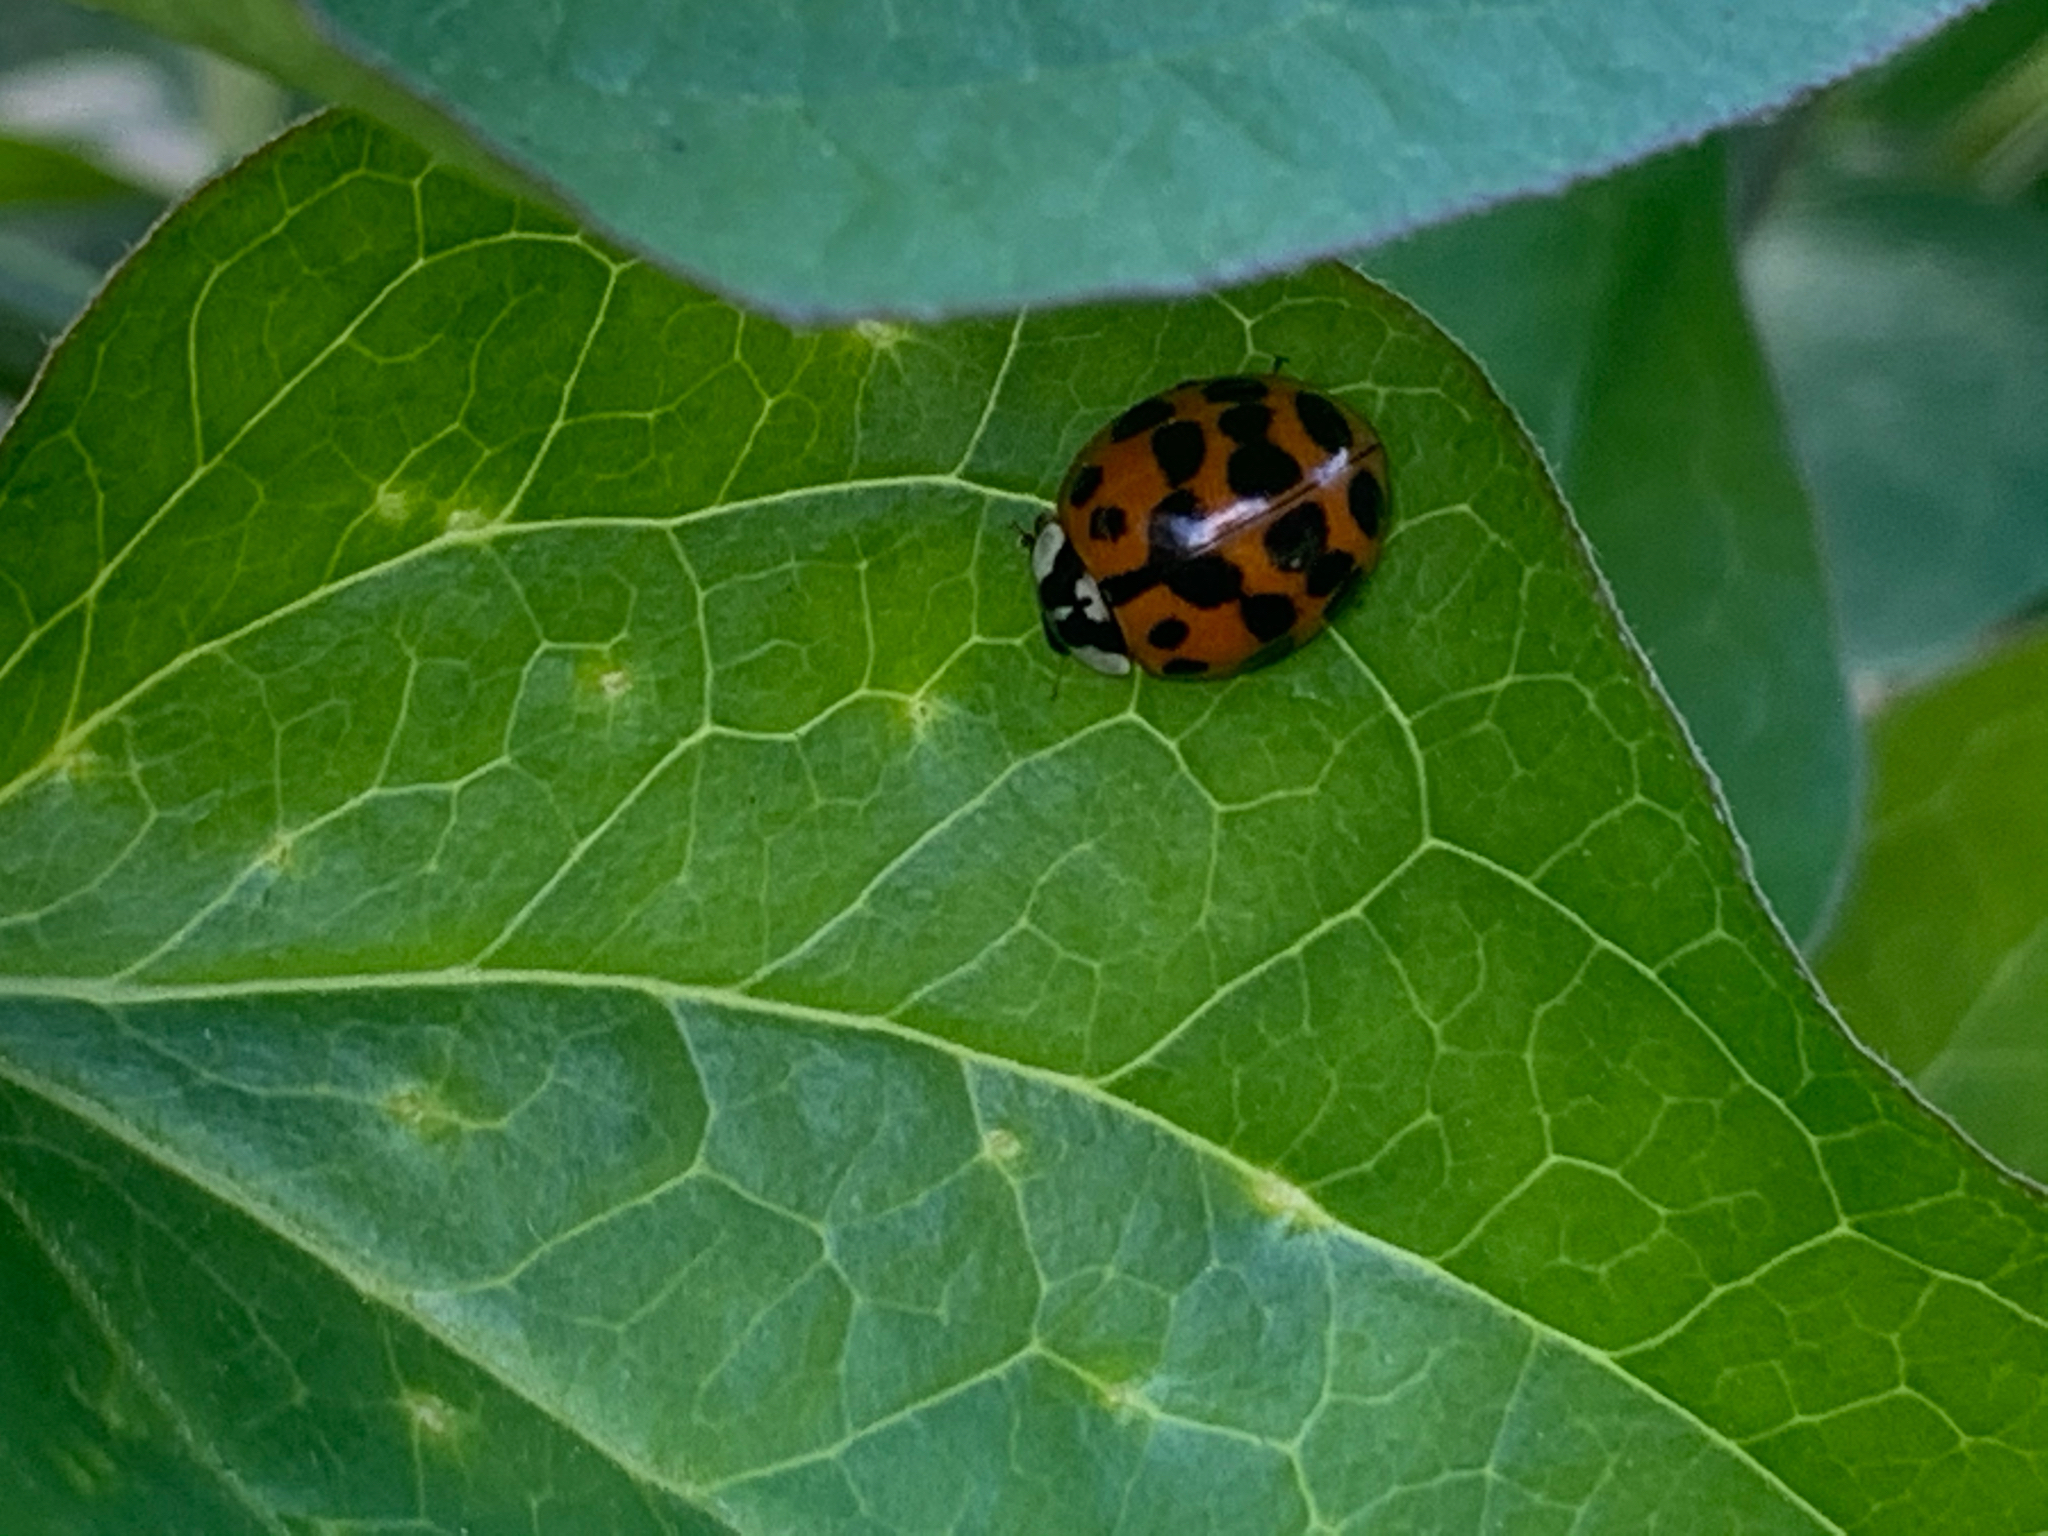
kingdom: Animalia
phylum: Arthropoda
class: Insecta
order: Coleoptera
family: Coccinellidae
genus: Harmonia
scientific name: Harmonia axyridis
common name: Harlequin ladybird
